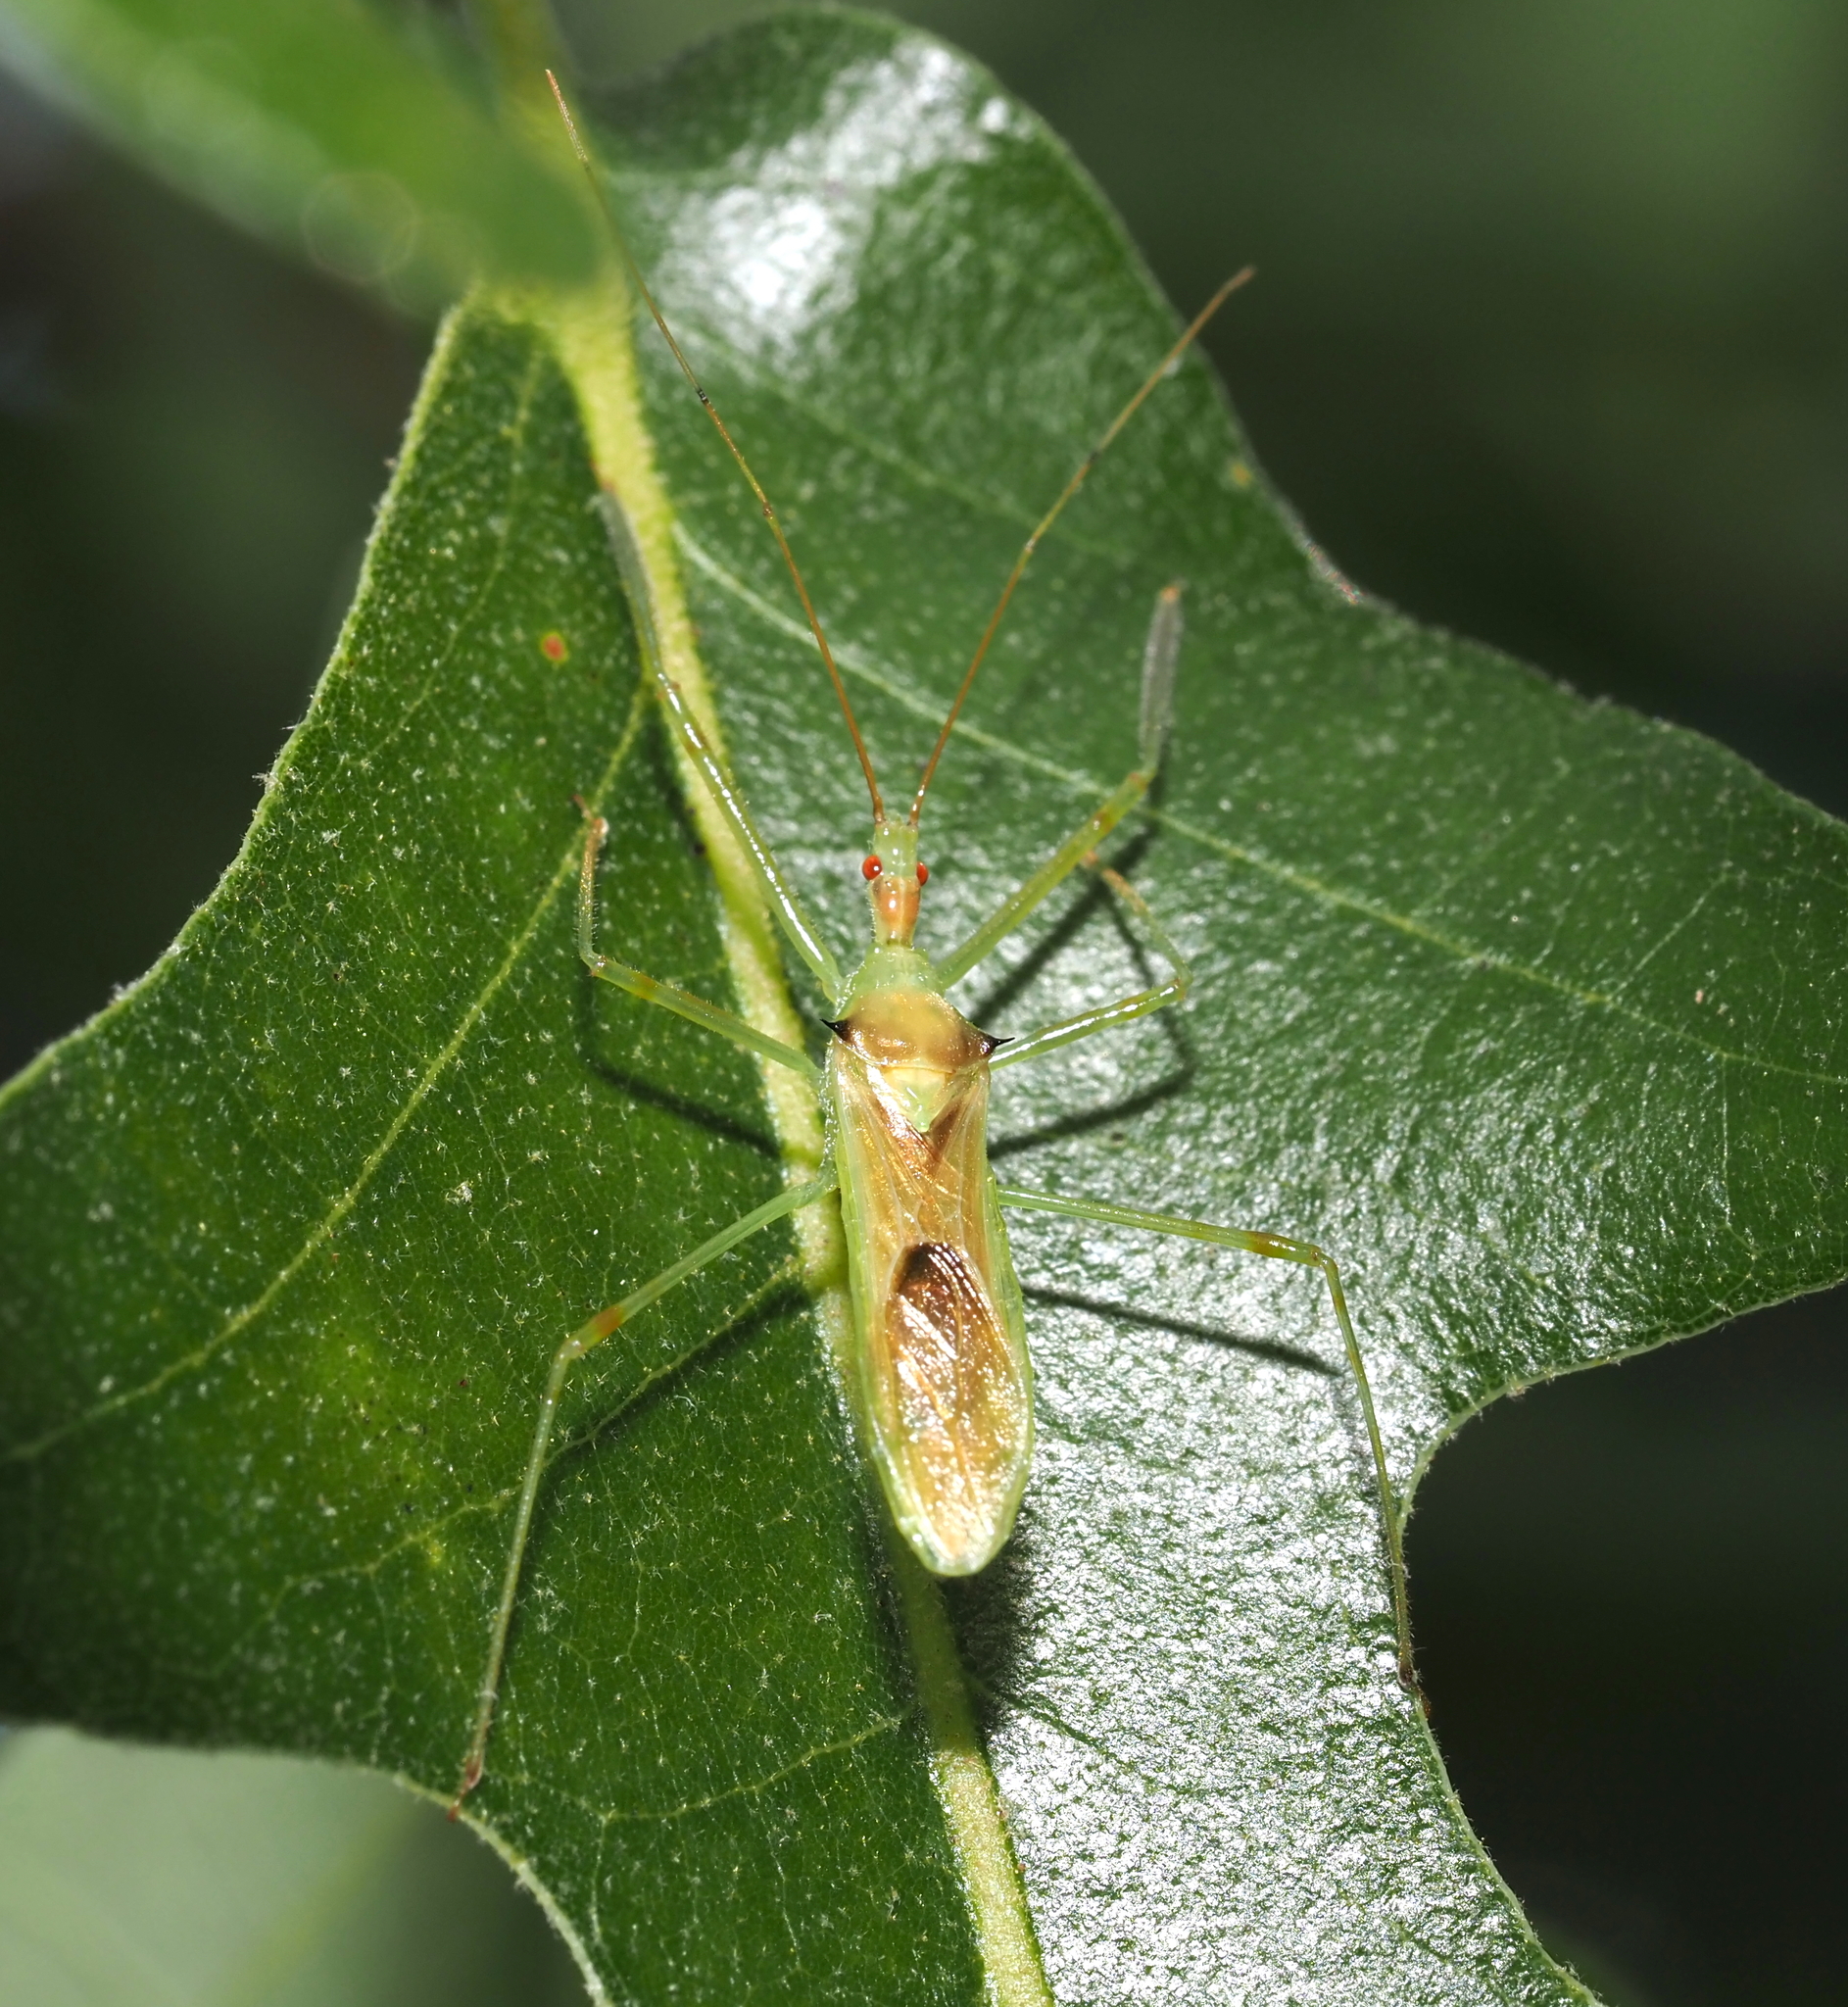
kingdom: Animalia
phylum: Arthropoda
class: Insecta
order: Hemiptera
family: Reduviidae
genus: Zelus
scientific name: Zelus luridus
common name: Pale green assassin bug
